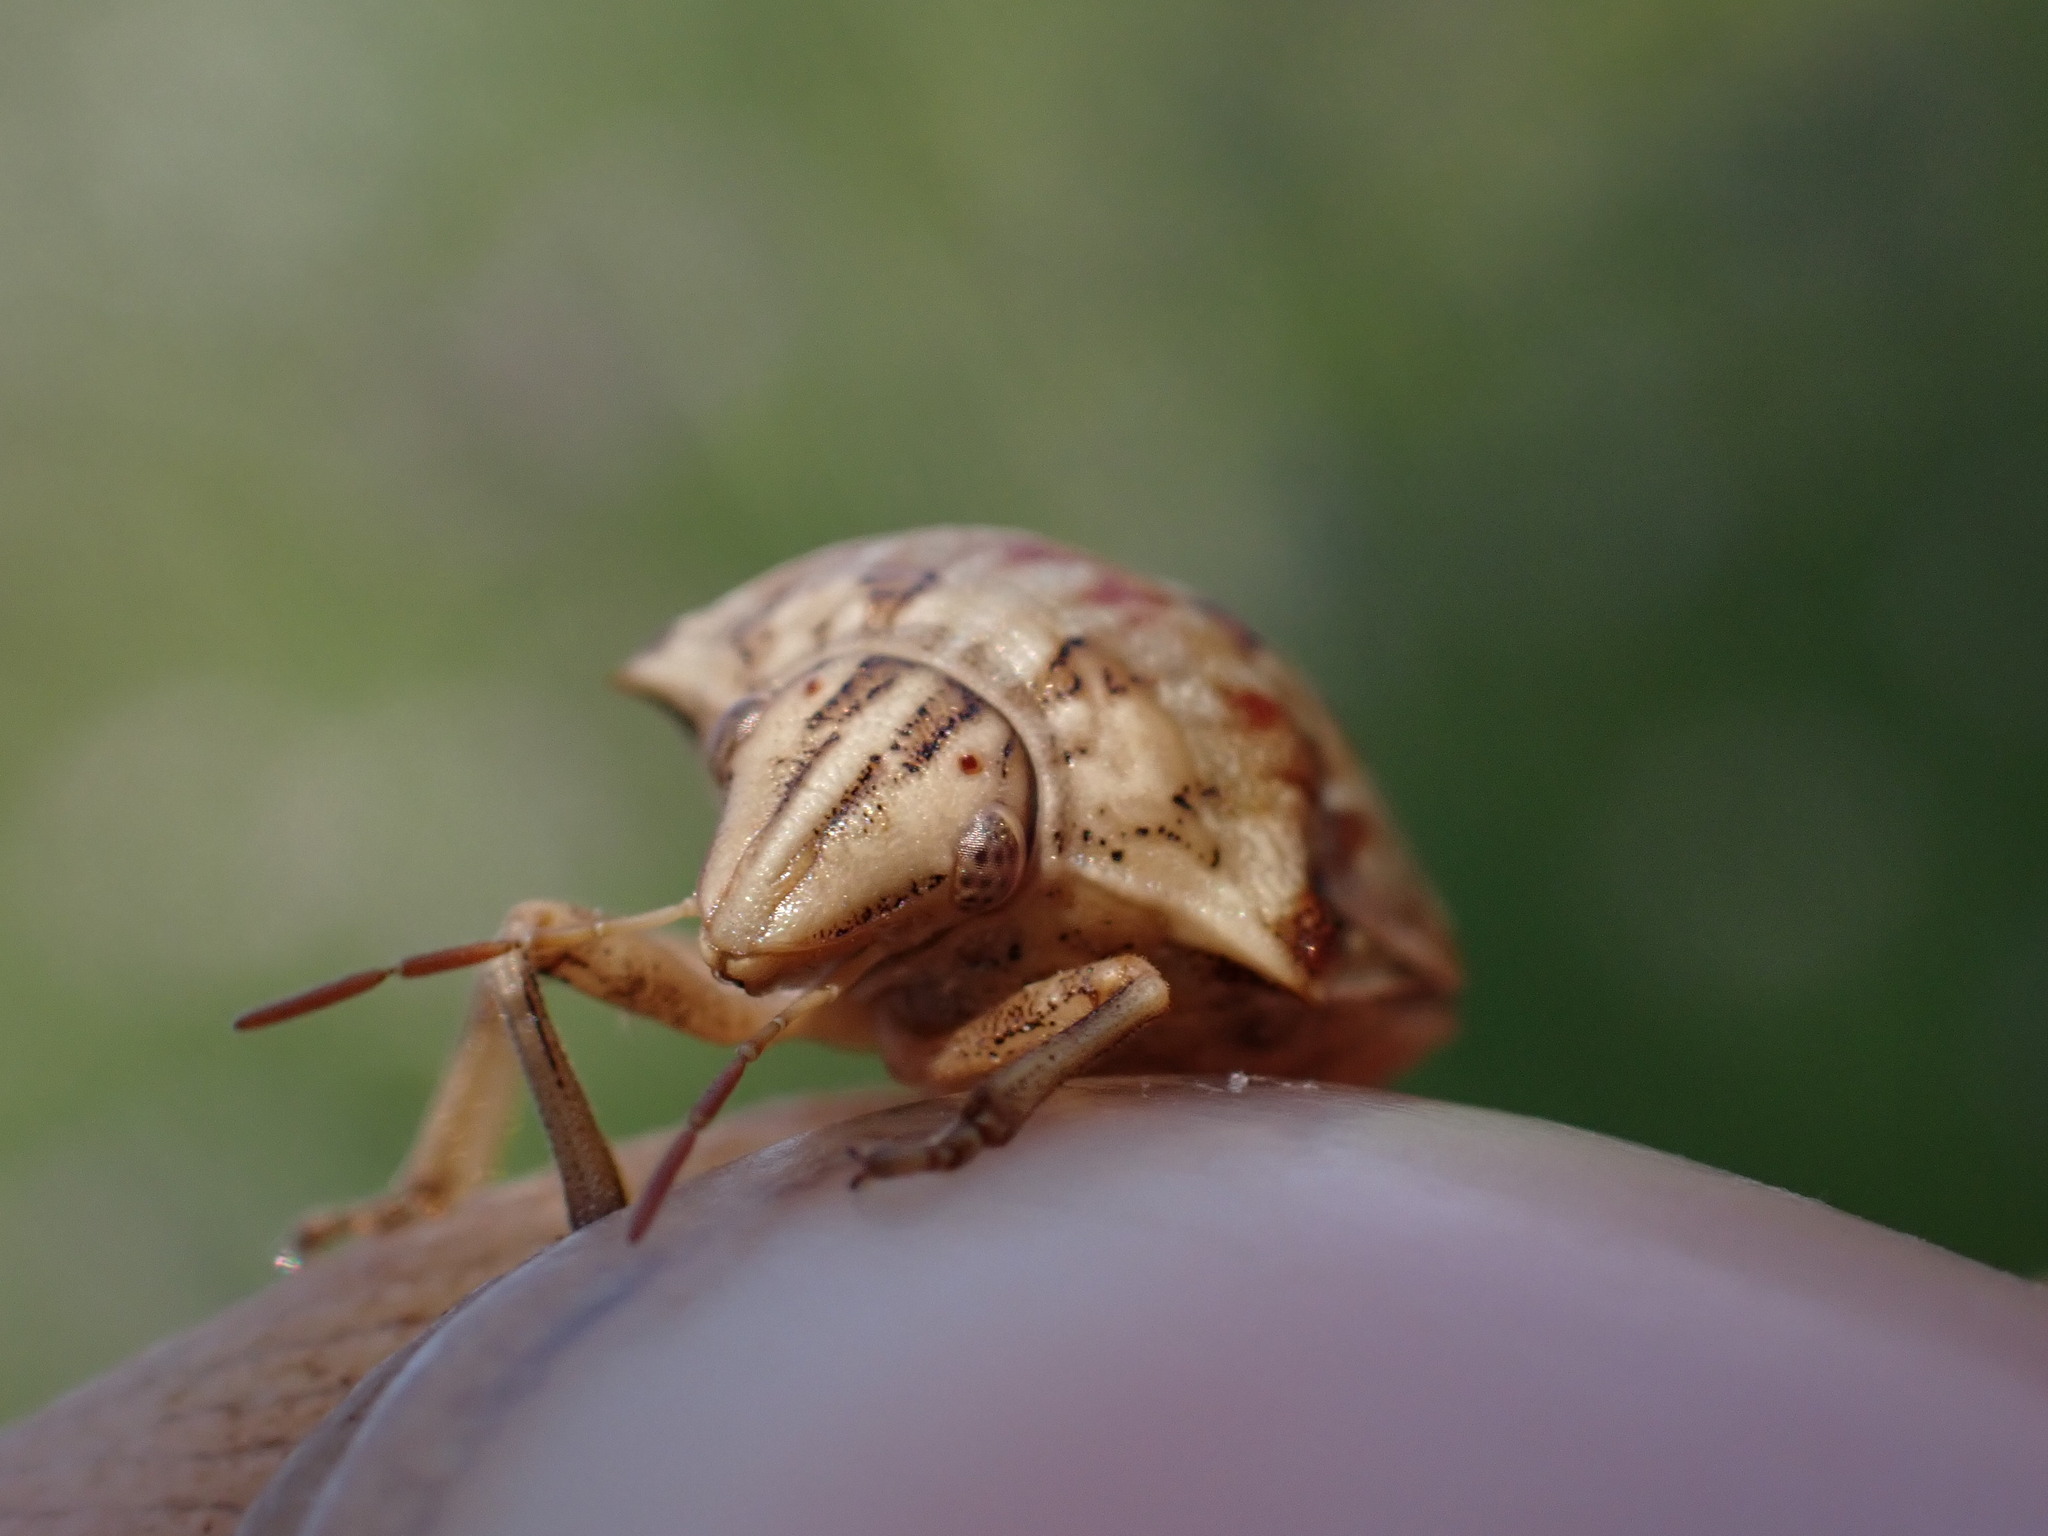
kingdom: Animalia
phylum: Arthropoda
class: Insecta
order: Hemiptera
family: Scutelleridae
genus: Odontotarsus
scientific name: Odontotarsus robustus
